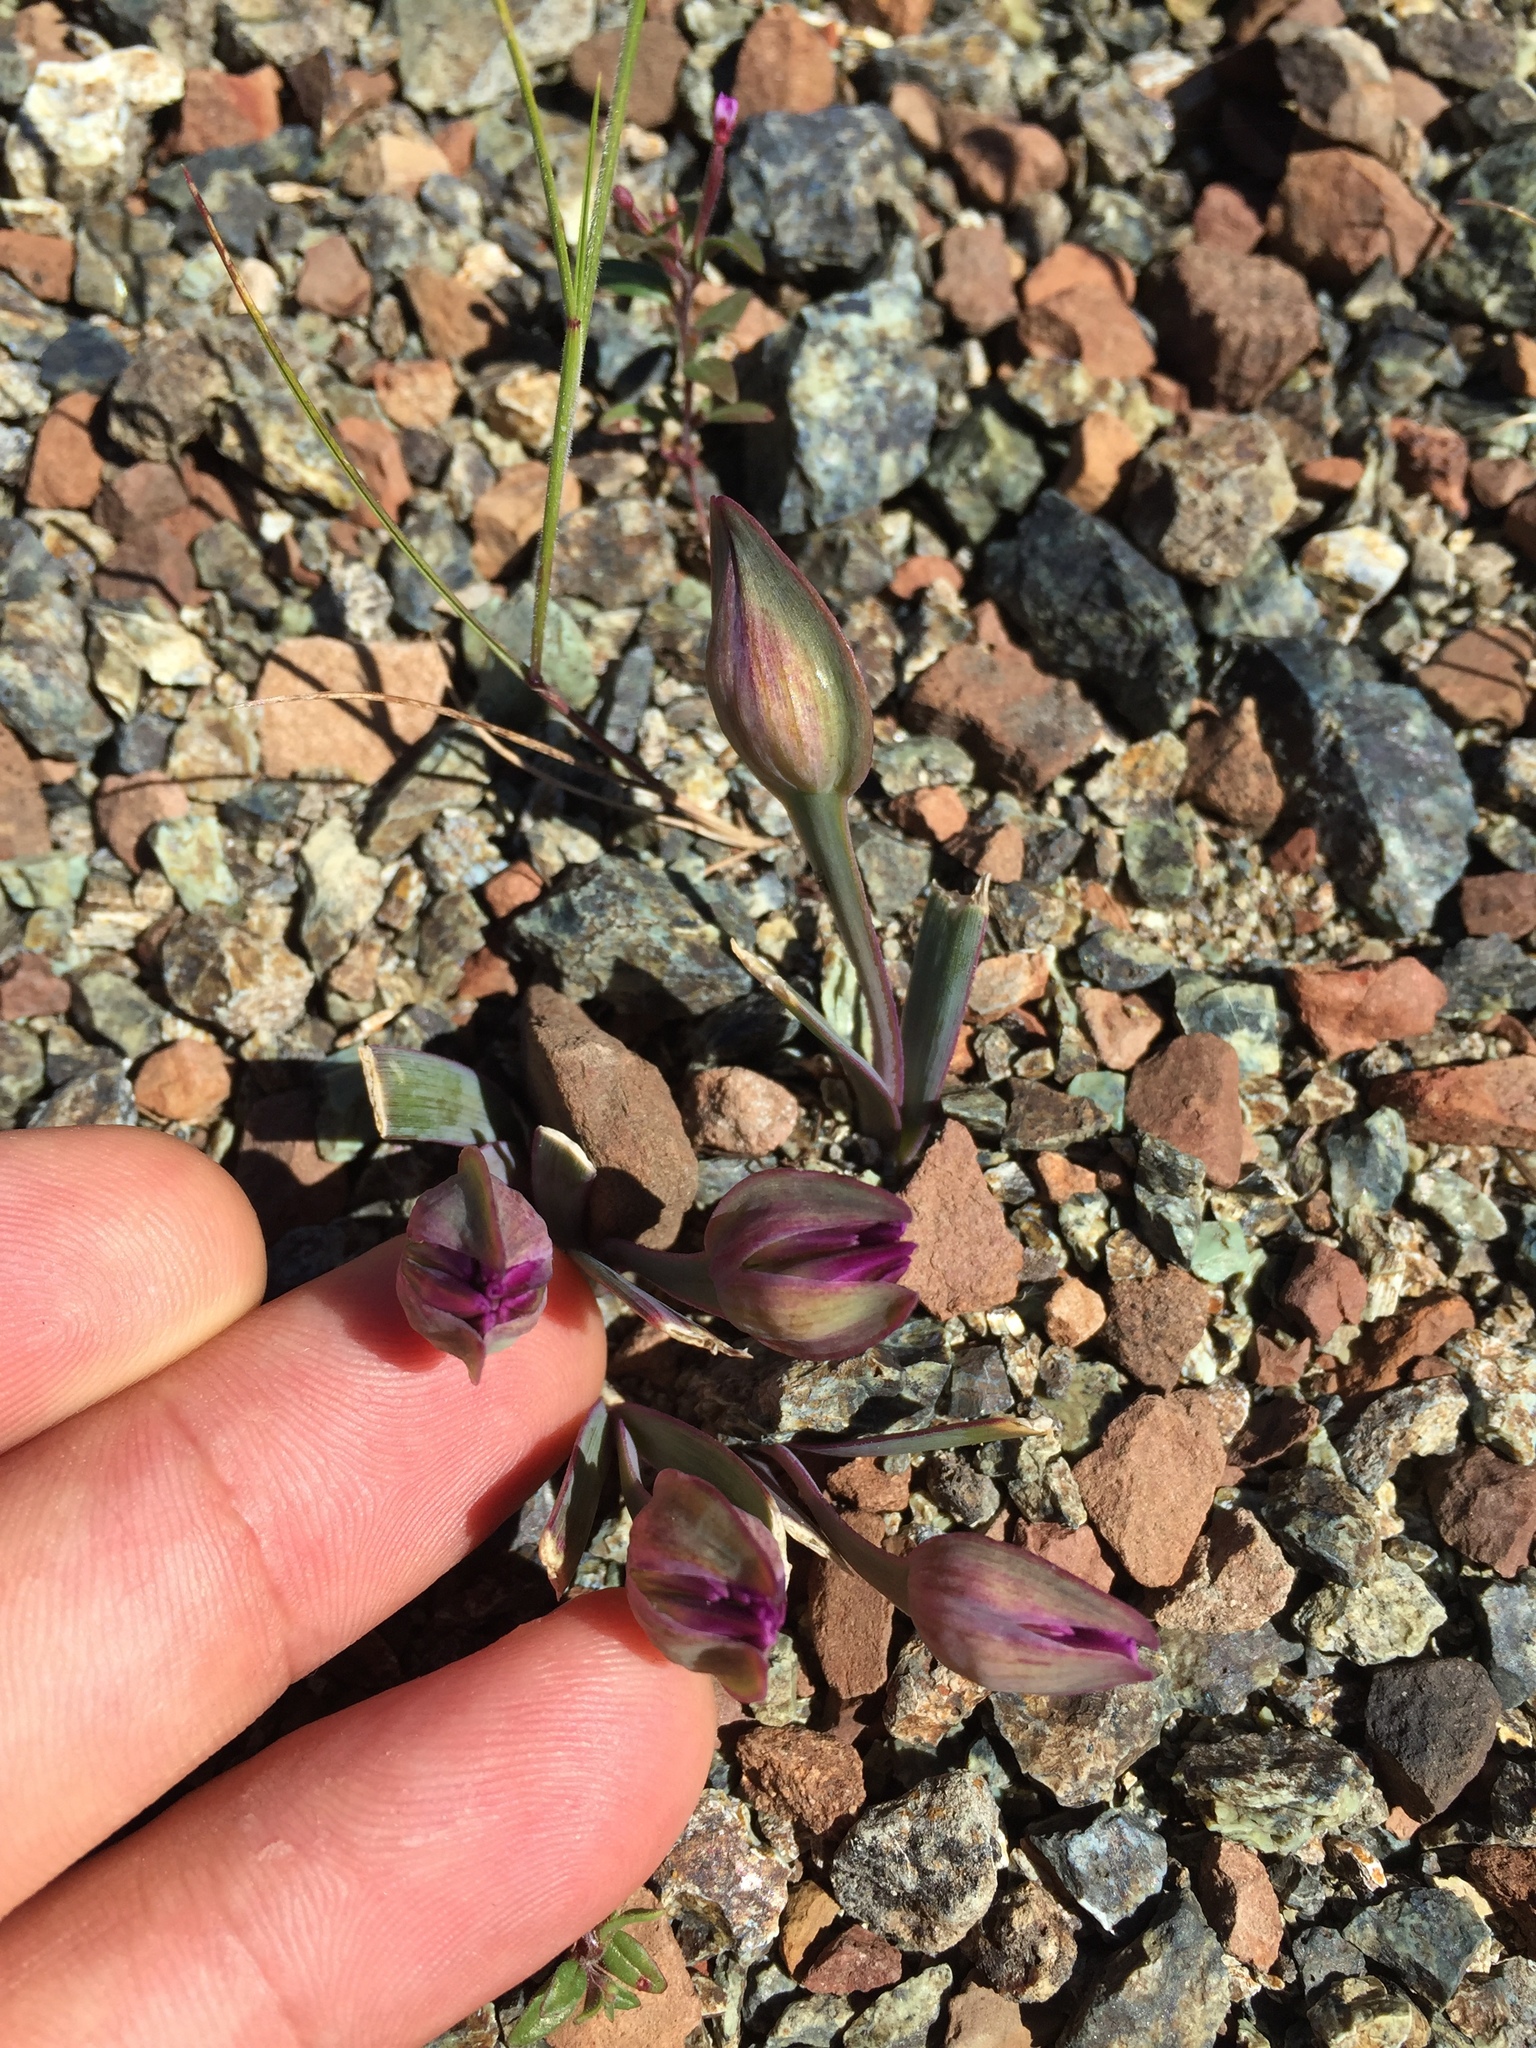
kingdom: Plantae
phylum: Tracheophyta
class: Liliopsida
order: Asparagales
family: Amaryllidaceae
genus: Allium
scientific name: Allium falcifolium
